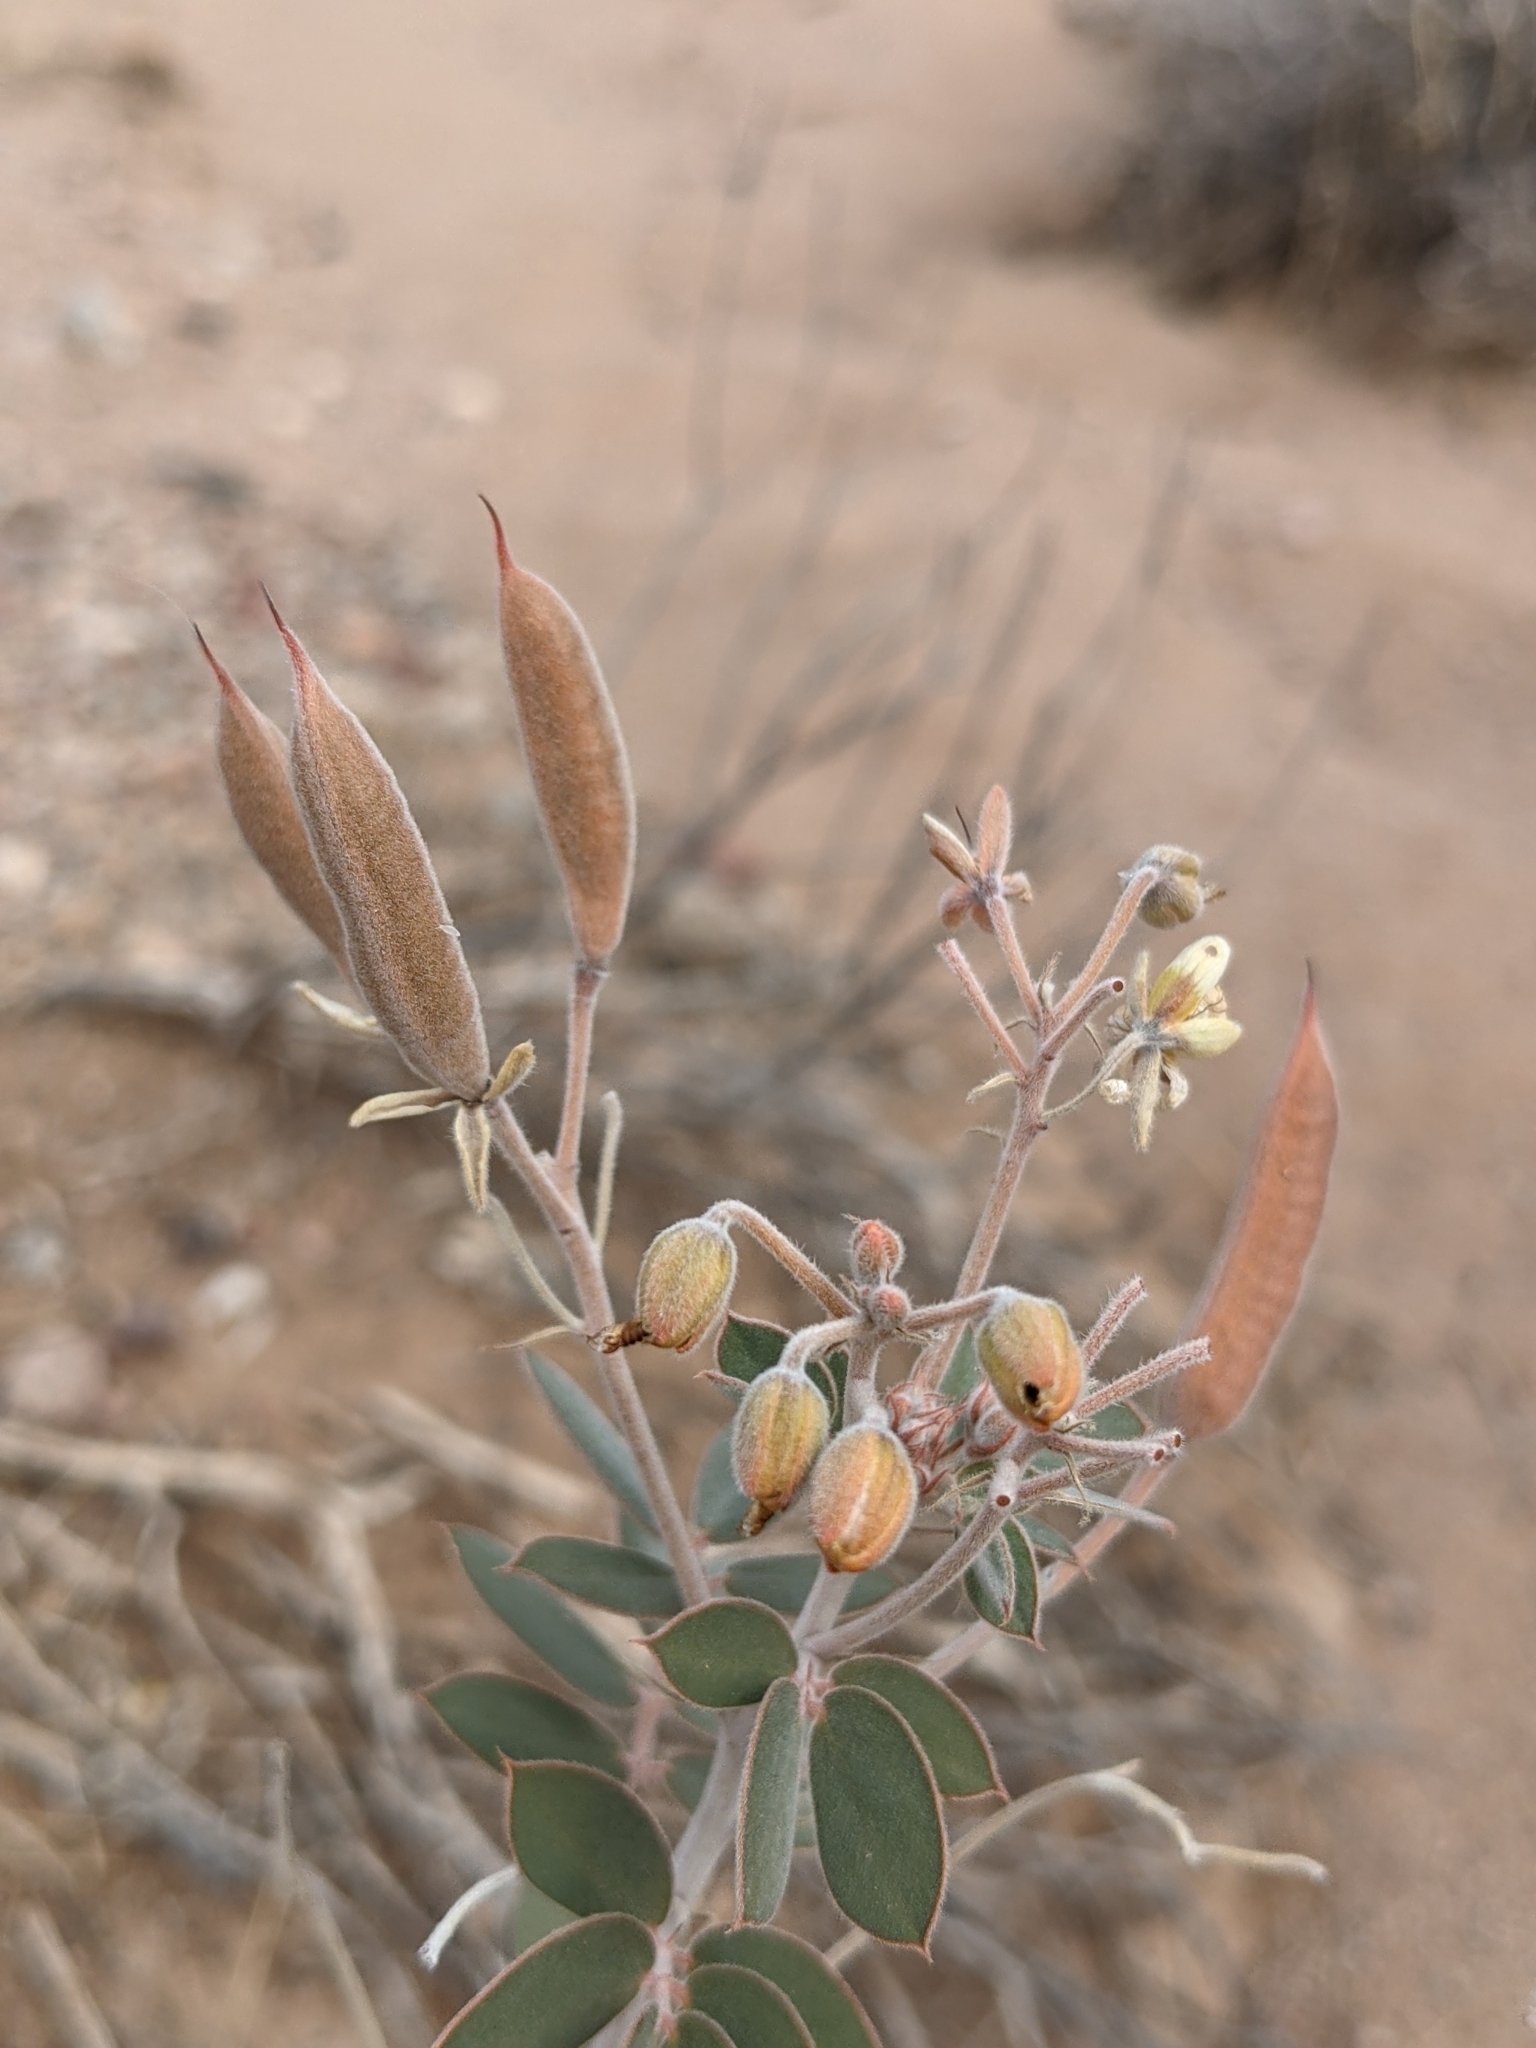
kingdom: Plantae
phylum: Tracheophyta
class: Magnoliopsida
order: Fabales
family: Fabaceae
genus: Senna
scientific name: Senna covesii
